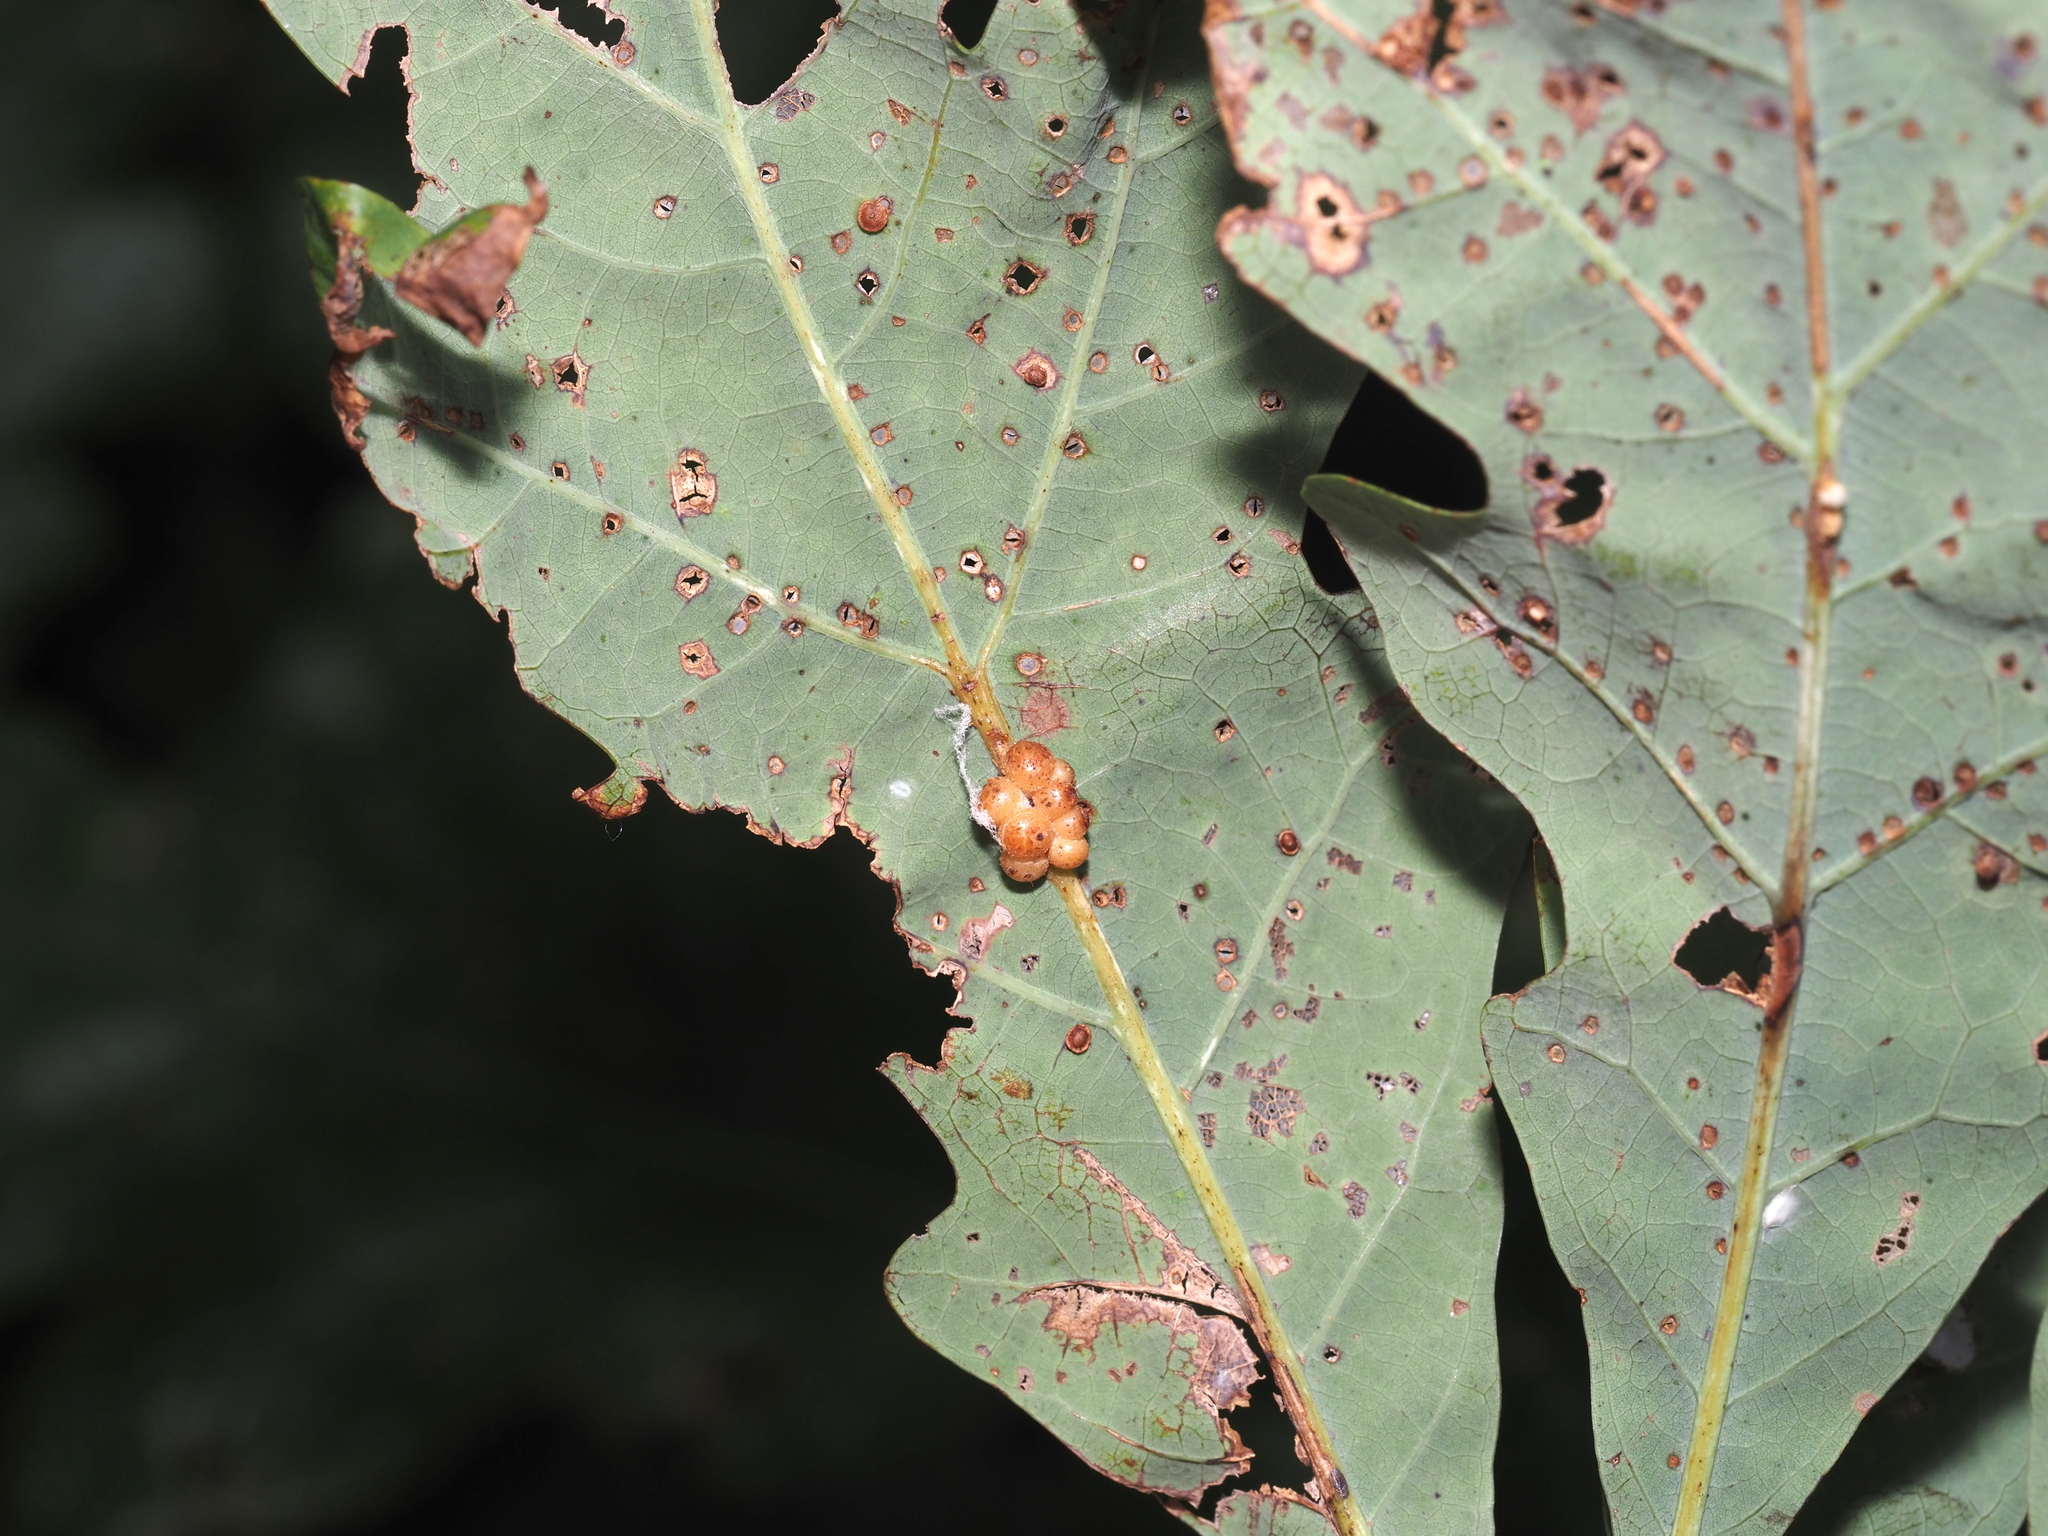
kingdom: Animalia
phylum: Arthropoda
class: Insecta
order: Hymenoptera
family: Cynipidae
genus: Andricus
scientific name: Andricus
